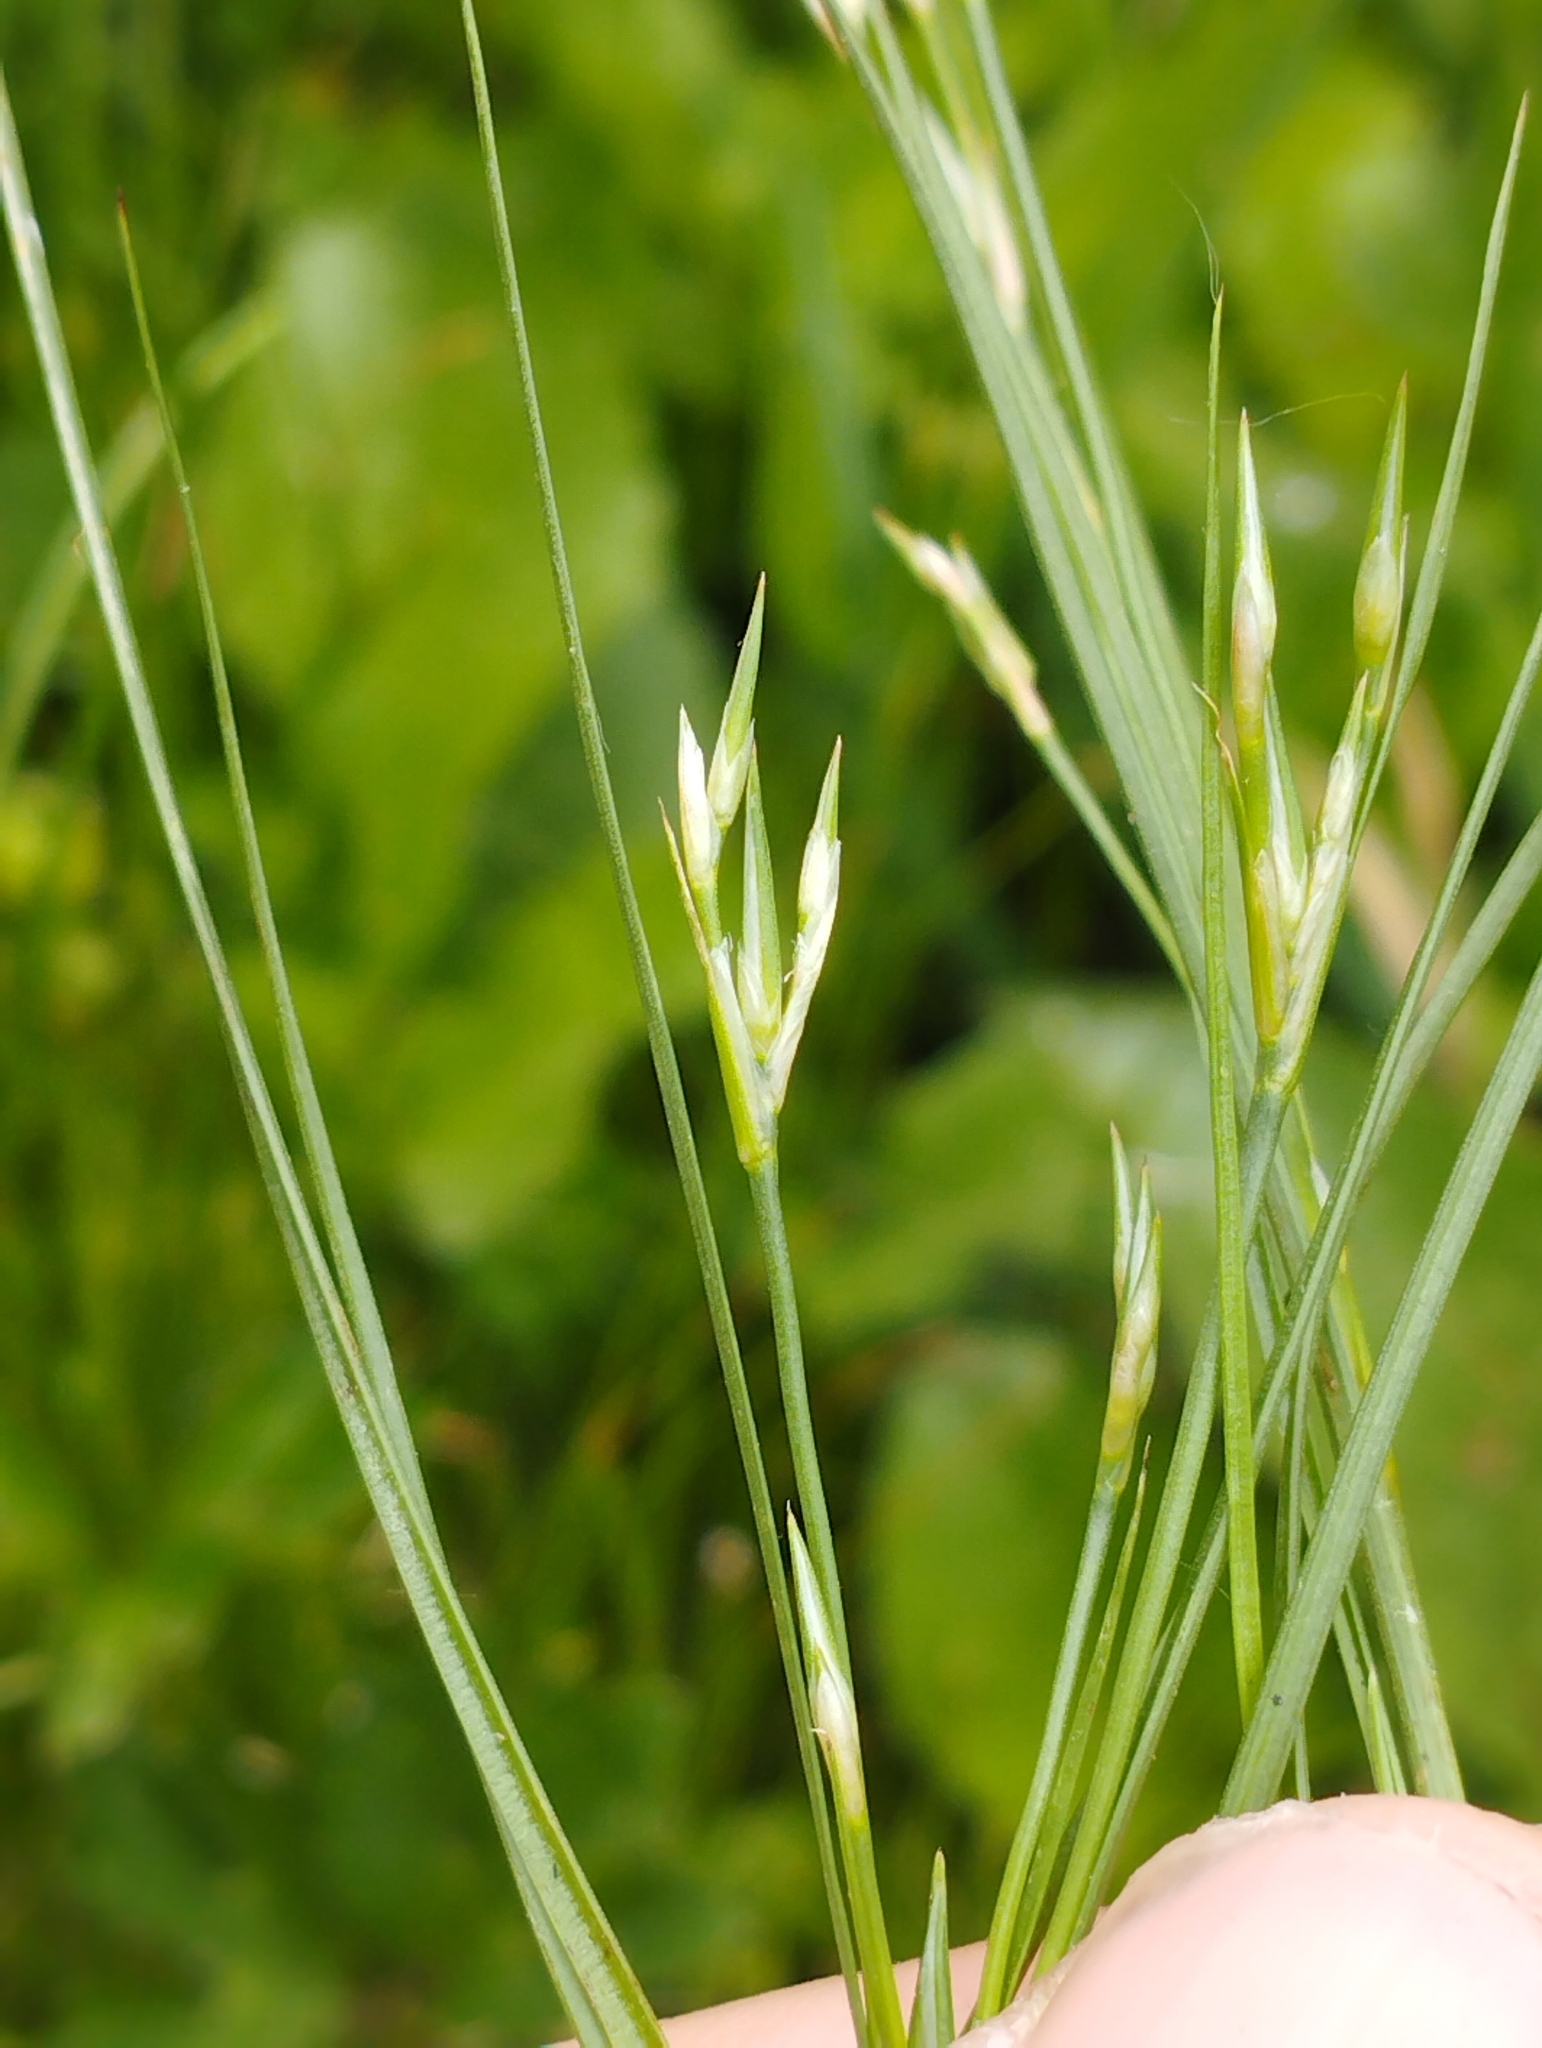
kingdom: Plantae
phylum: Tracheophyta
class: Liliopsida
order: Poales
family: Juncaceae
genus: Juncus
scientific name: Juncus bufonius
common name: Toad rush
